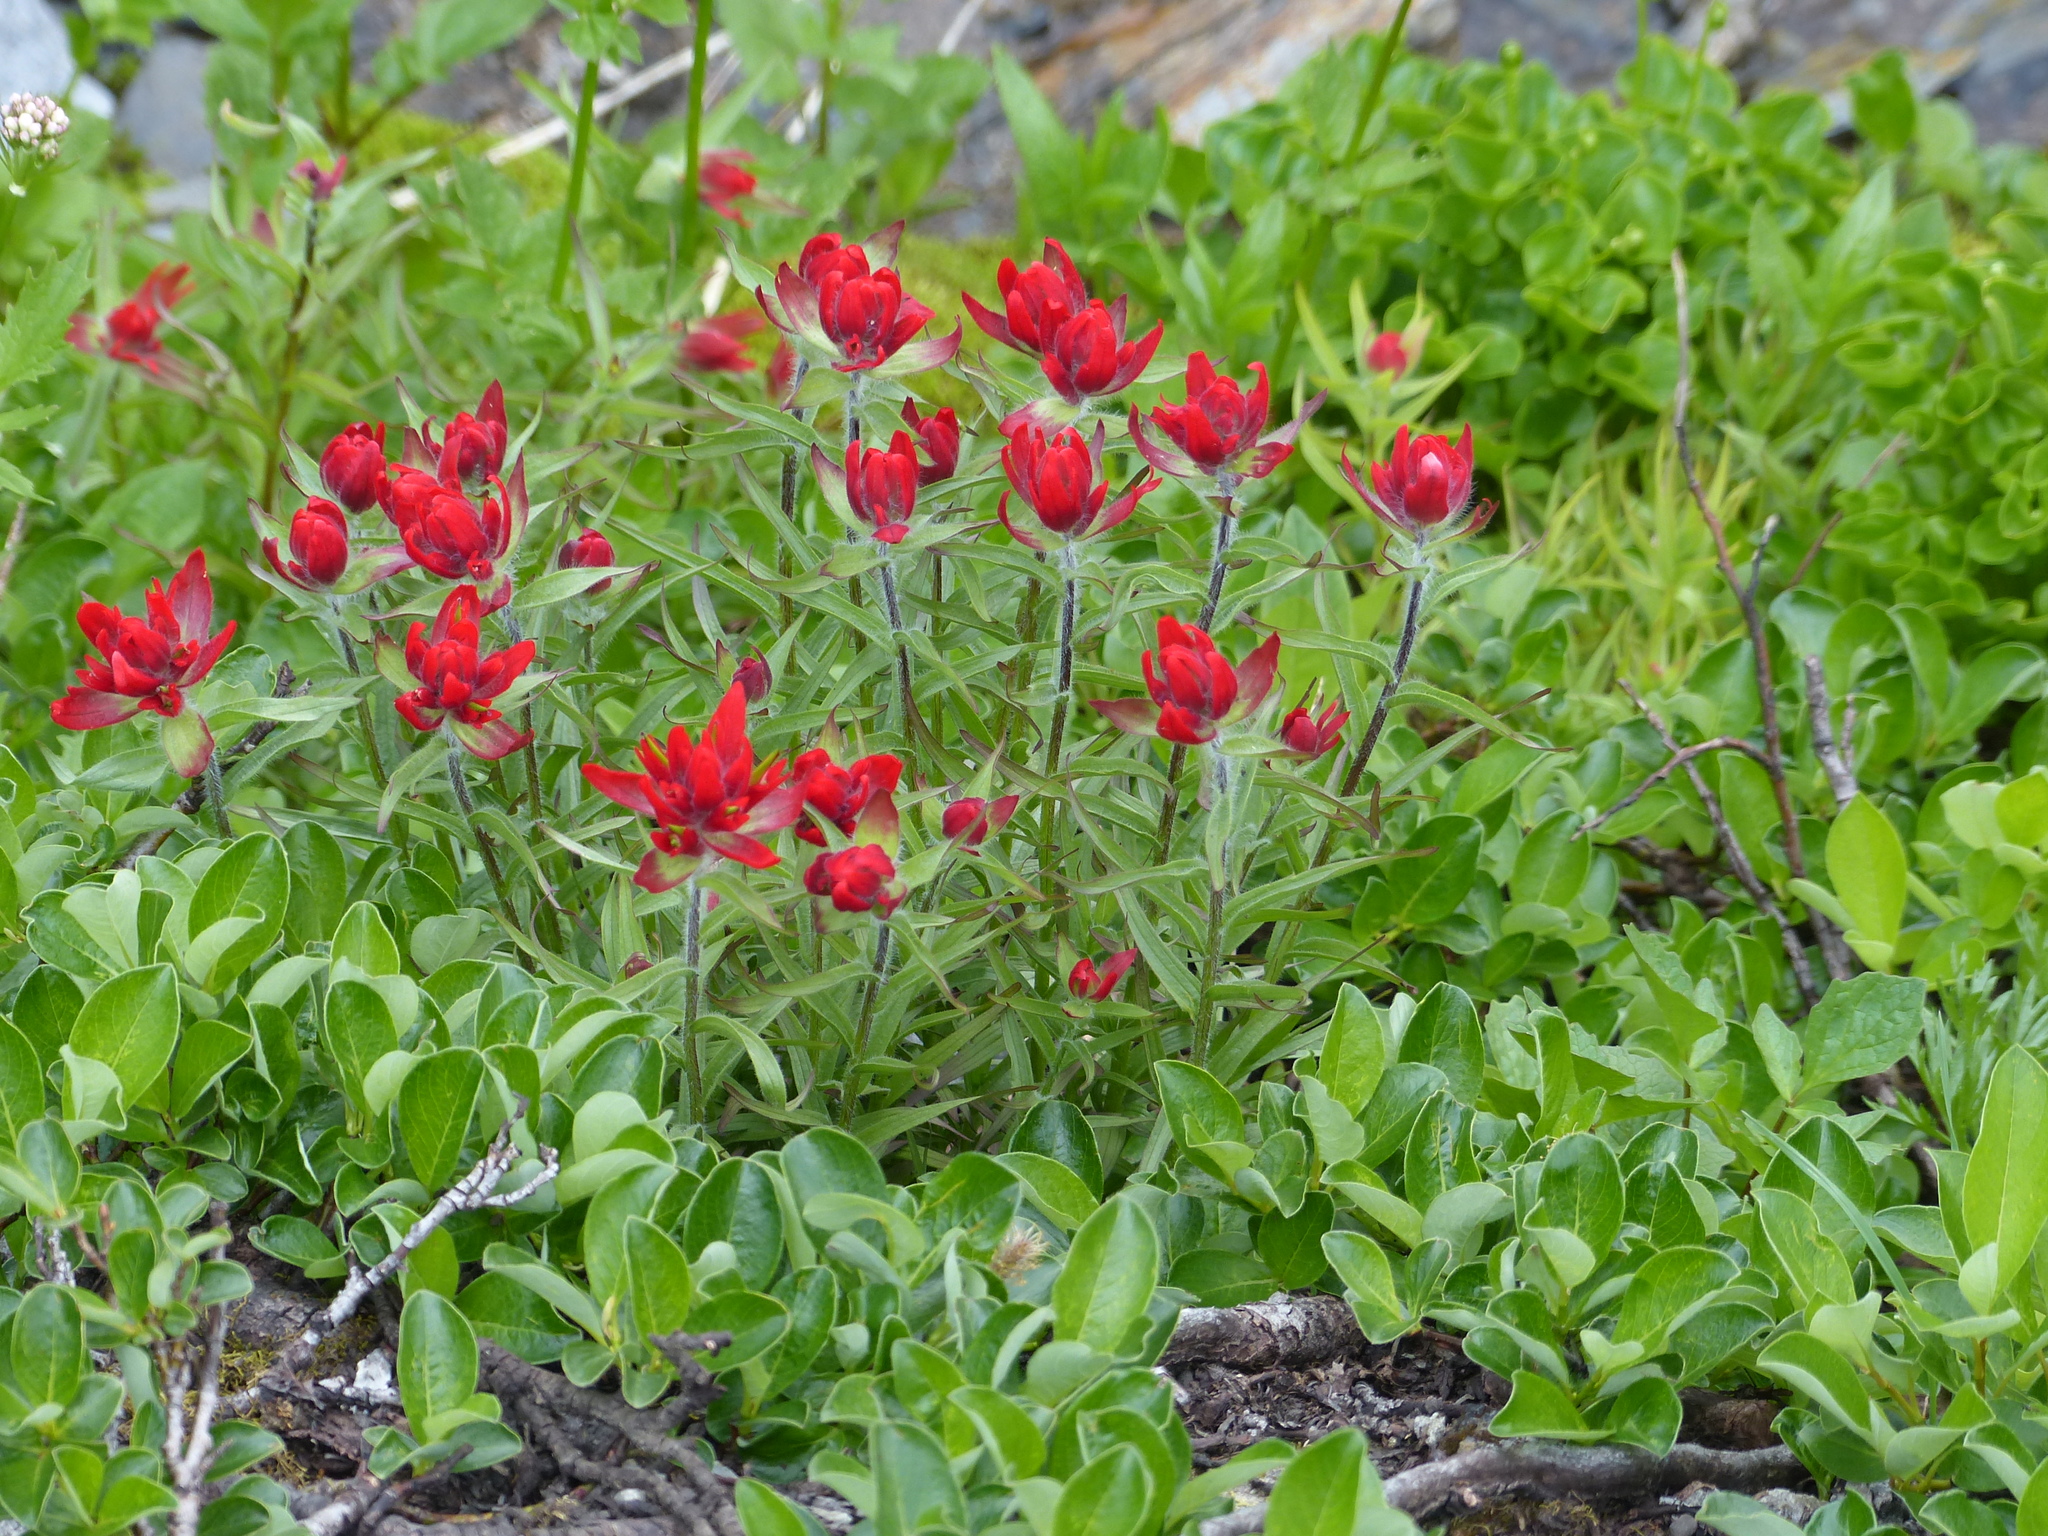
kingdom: Plantae
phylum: Tracheophyta
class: Magnoliopsida
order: Lamiales
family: Orobanchaceae
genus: Castilleja
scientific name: Castilleja rhexifolia
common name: Rocky mountain paintbrush
